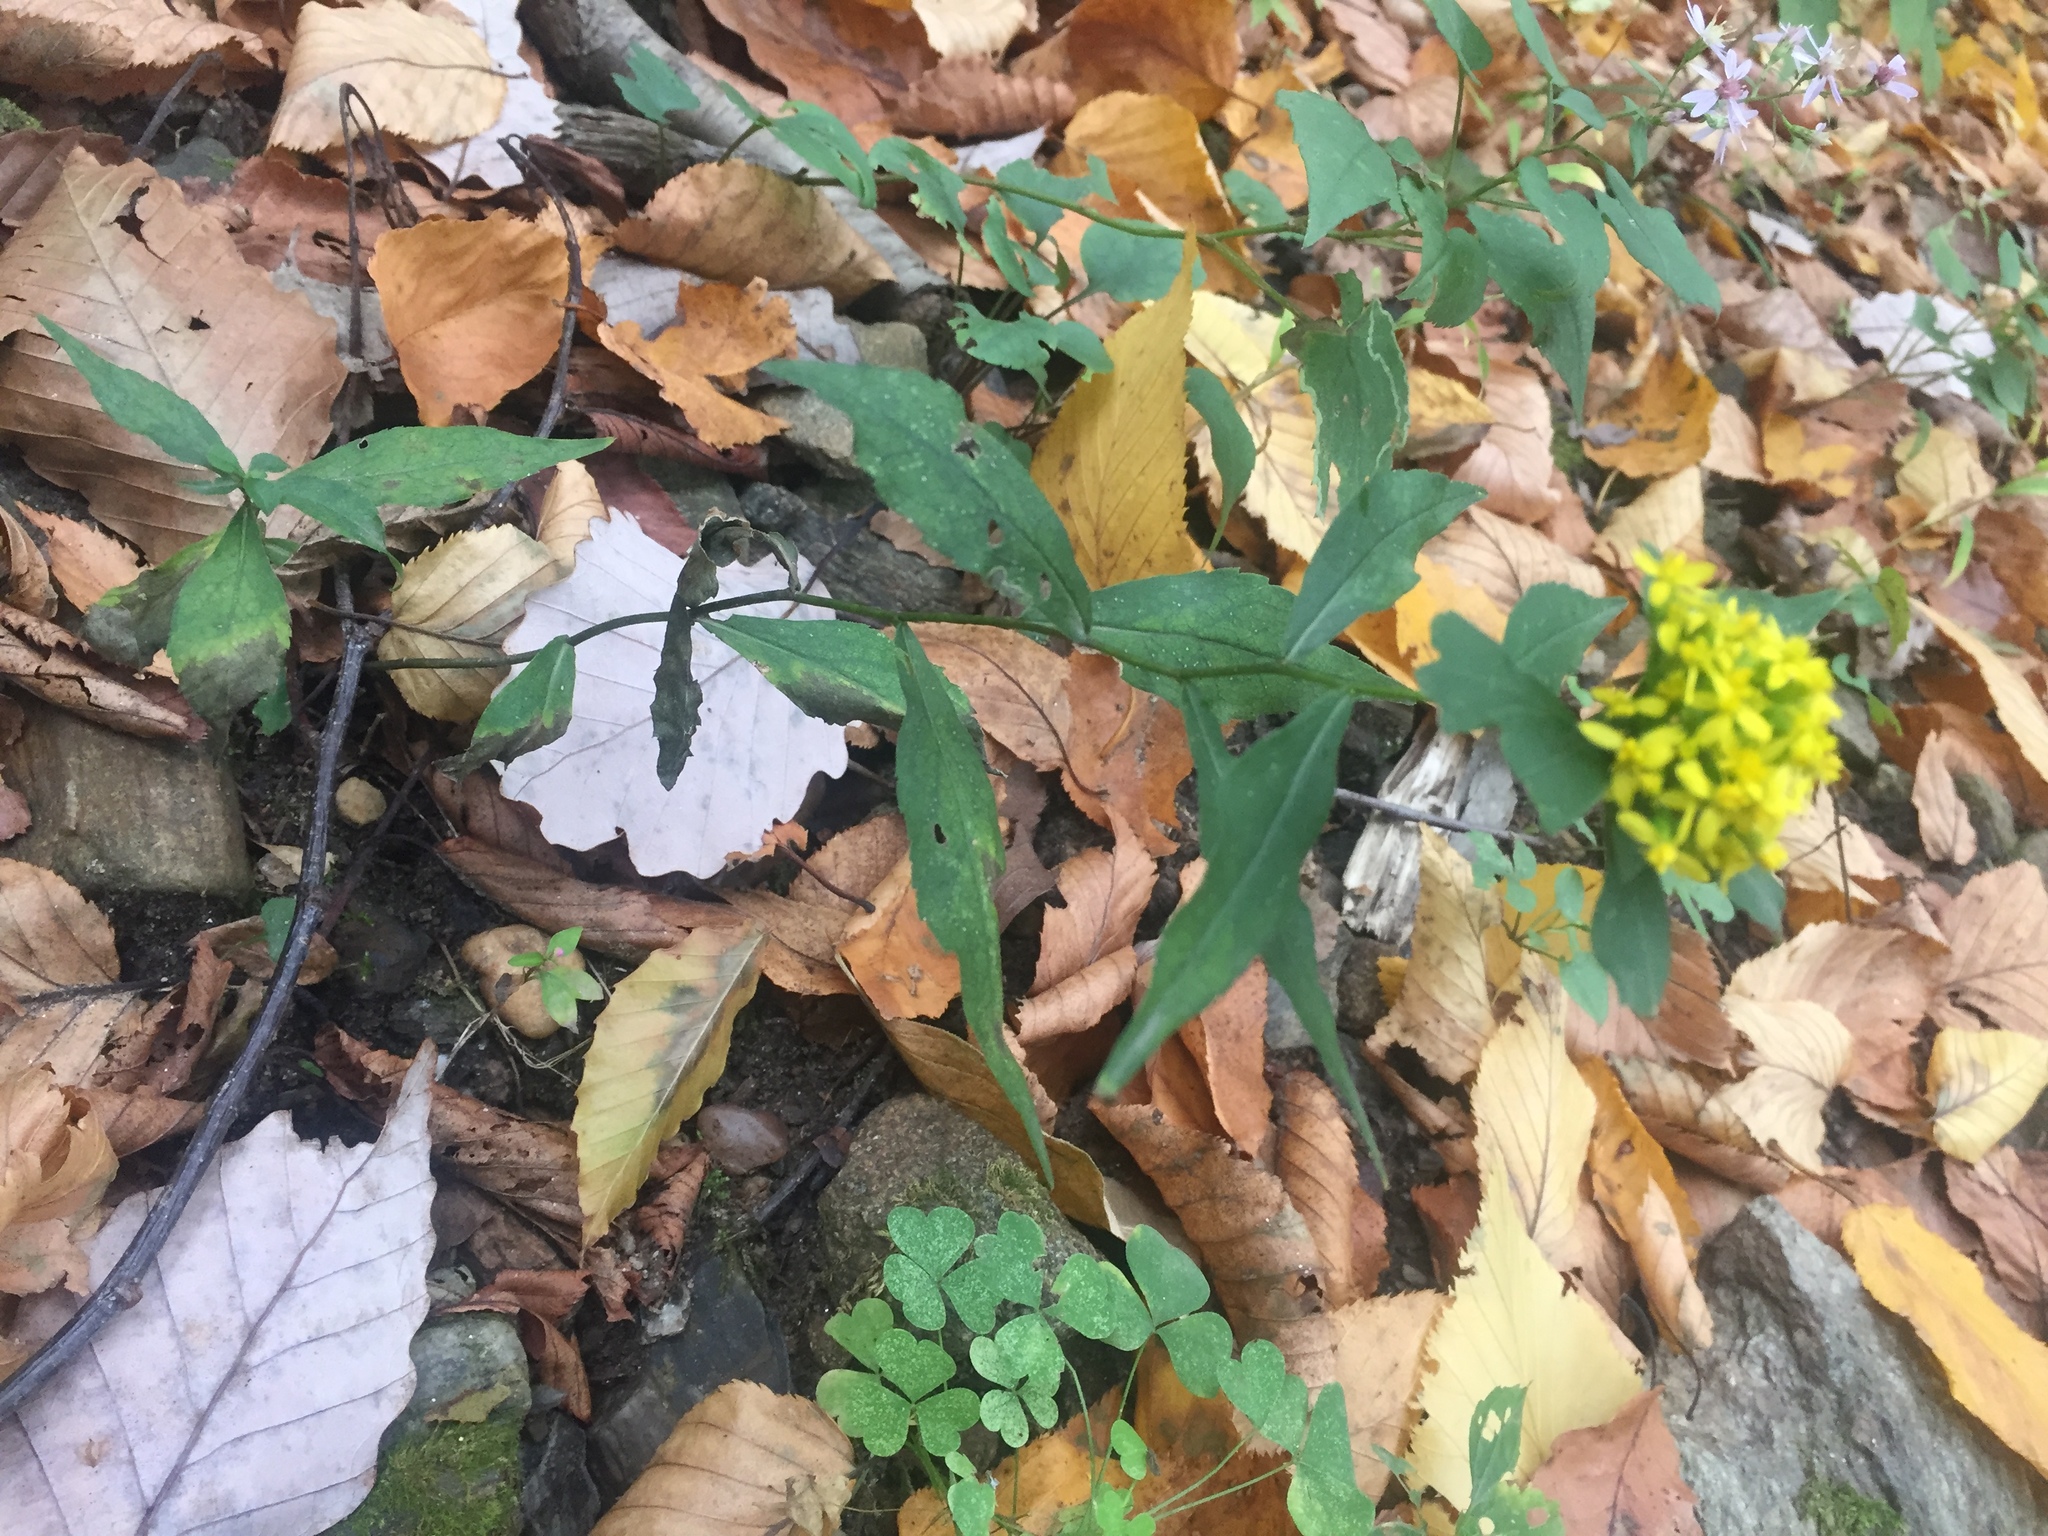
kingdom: Plantae
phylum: Tracheophyta
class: Magnoliopsida
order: Asterales
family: Asteraceae
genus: Solidago
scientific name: Solidago caesia
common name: Woodland goldenrod
